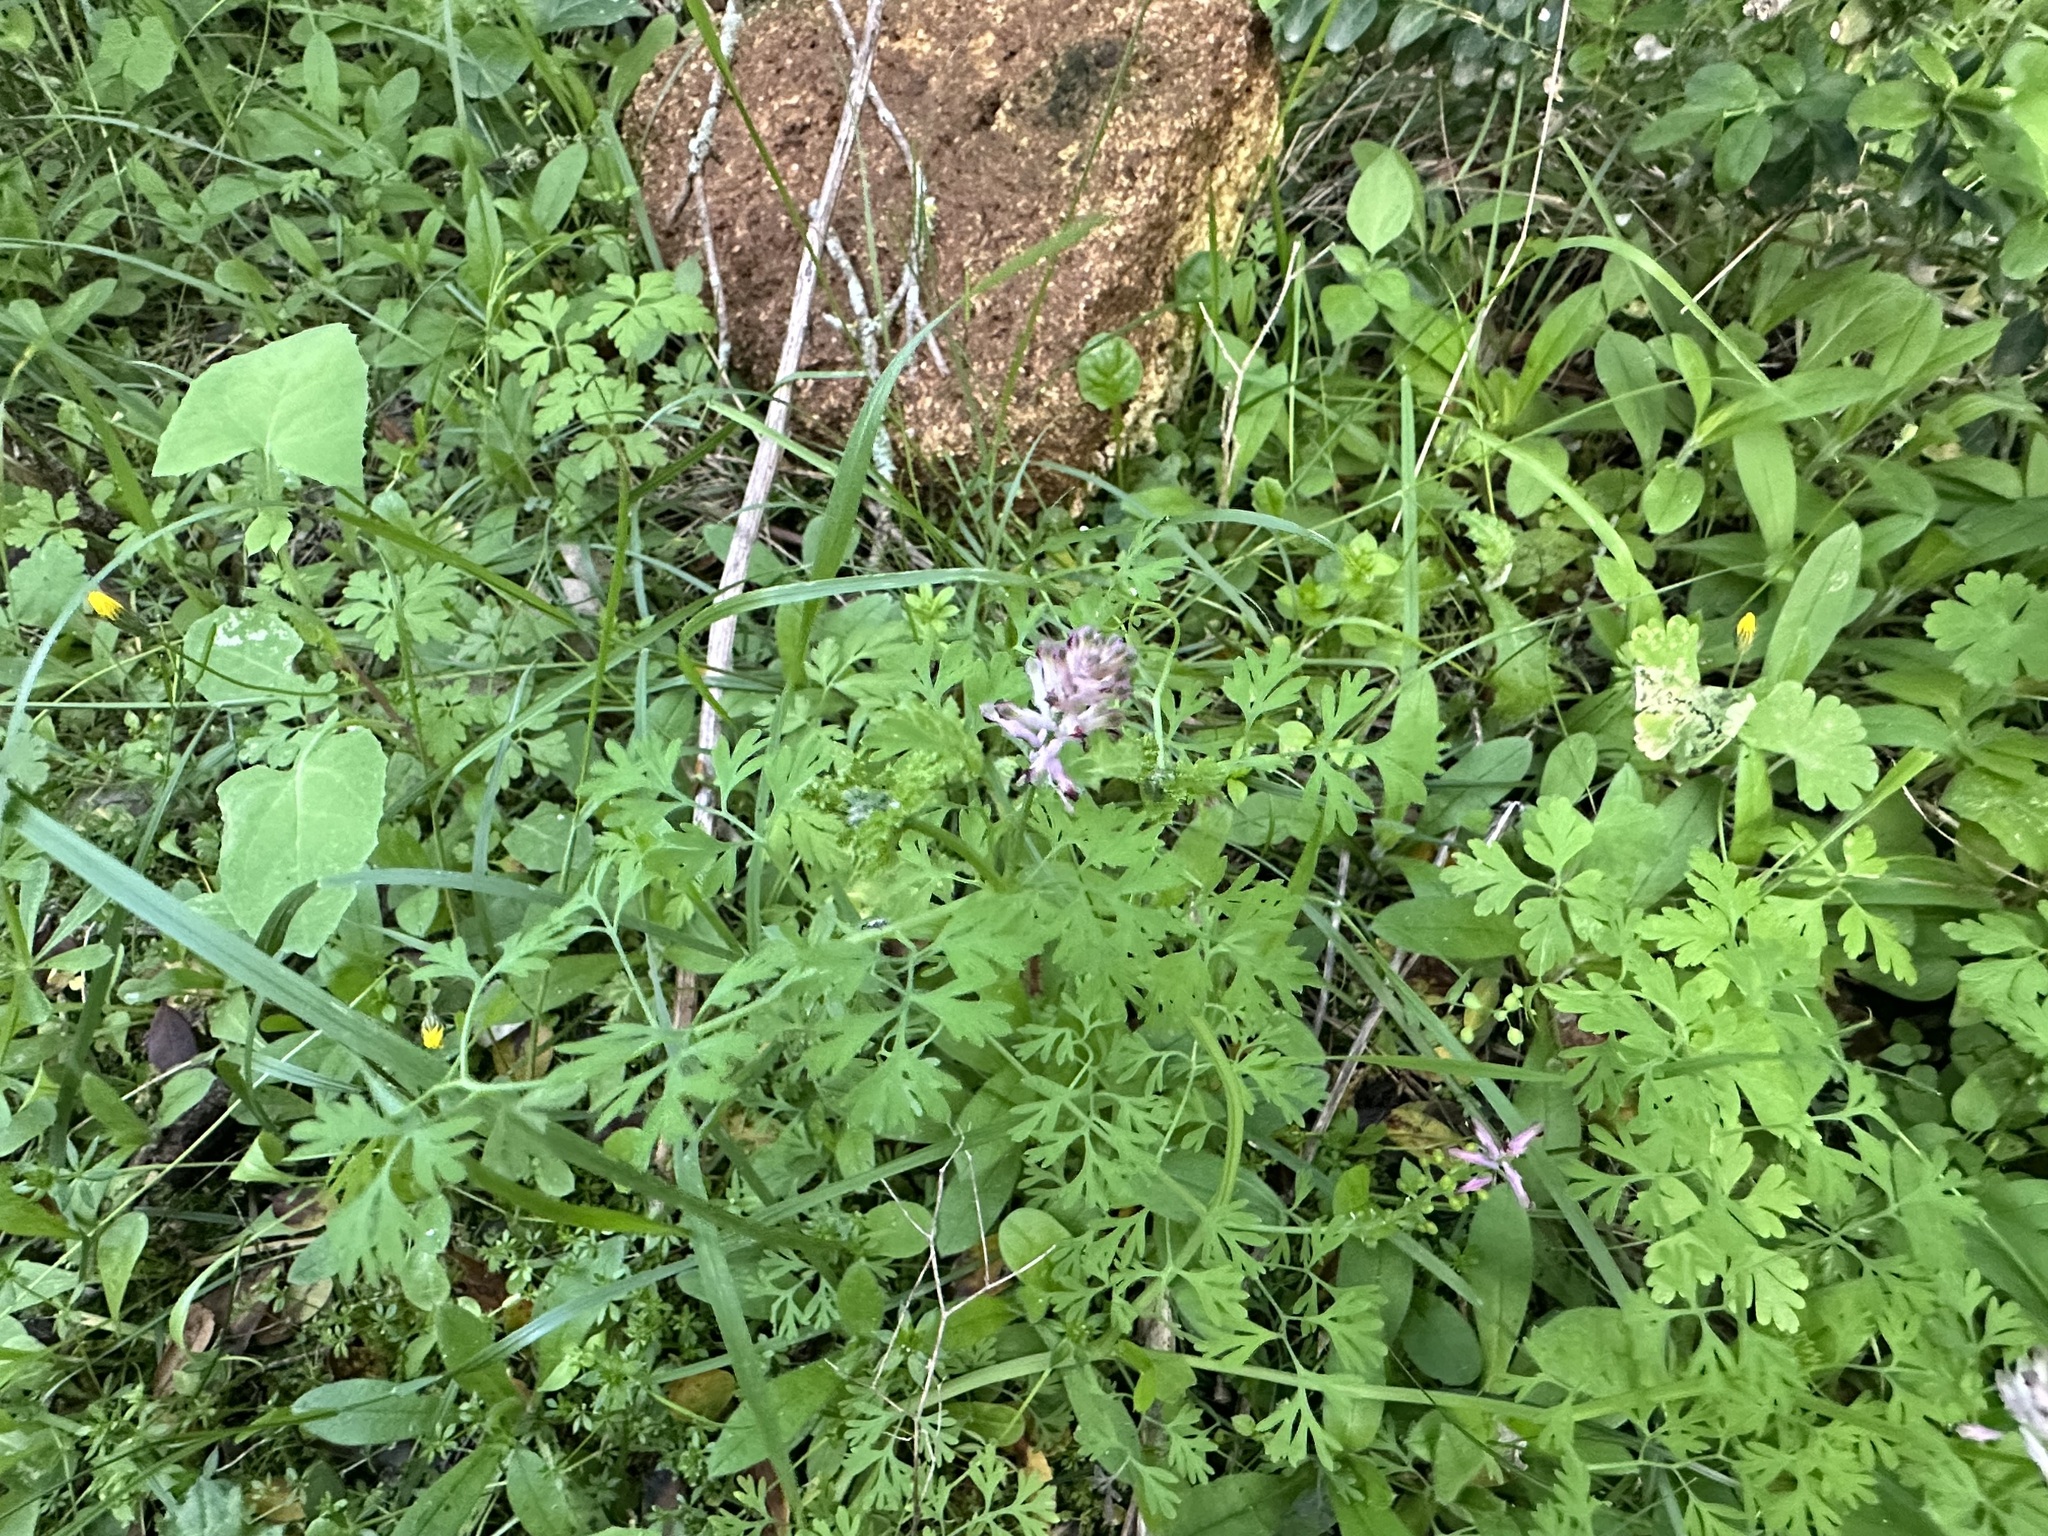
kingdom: Plantae
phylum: Tracheophyta
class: Magnoliopsida
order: Ranunculales
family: Papaveraceae
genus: Fumaria
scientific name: Fumaria officinalis
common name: Common fumitory
